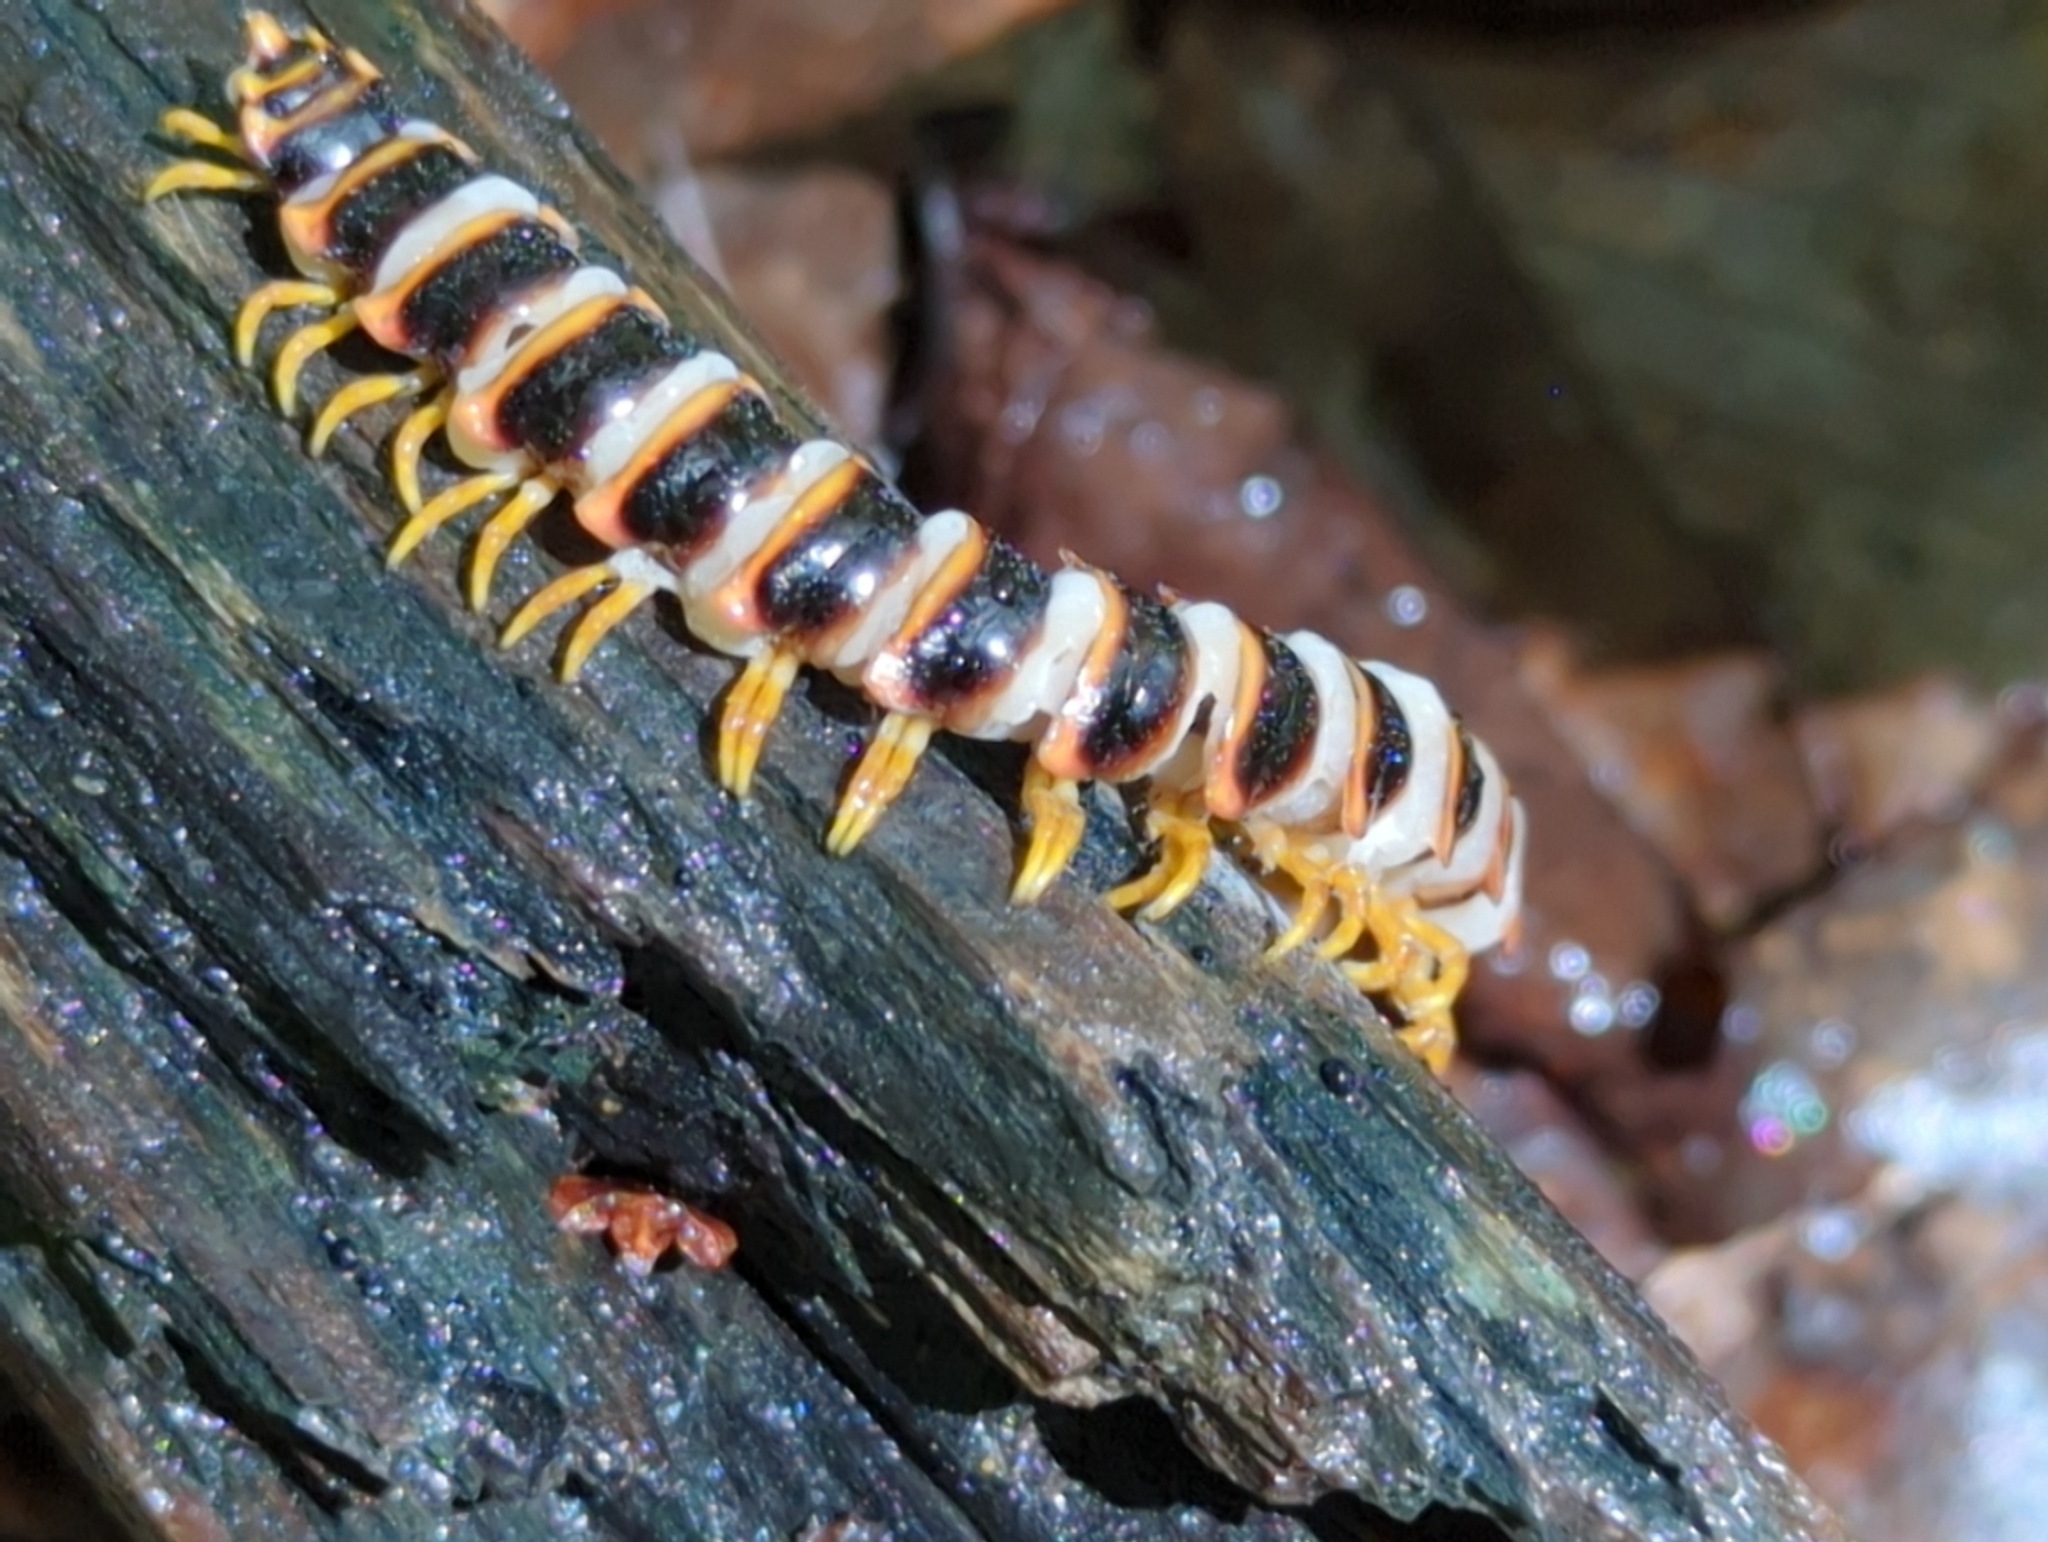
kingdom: Fungi
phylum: Entomophthoromycota
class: Entomophthoromycetes
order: Entomophthorales
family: Entomophthoraceae
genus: Arthrophaga
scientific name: Arthrophaga myriapodina
